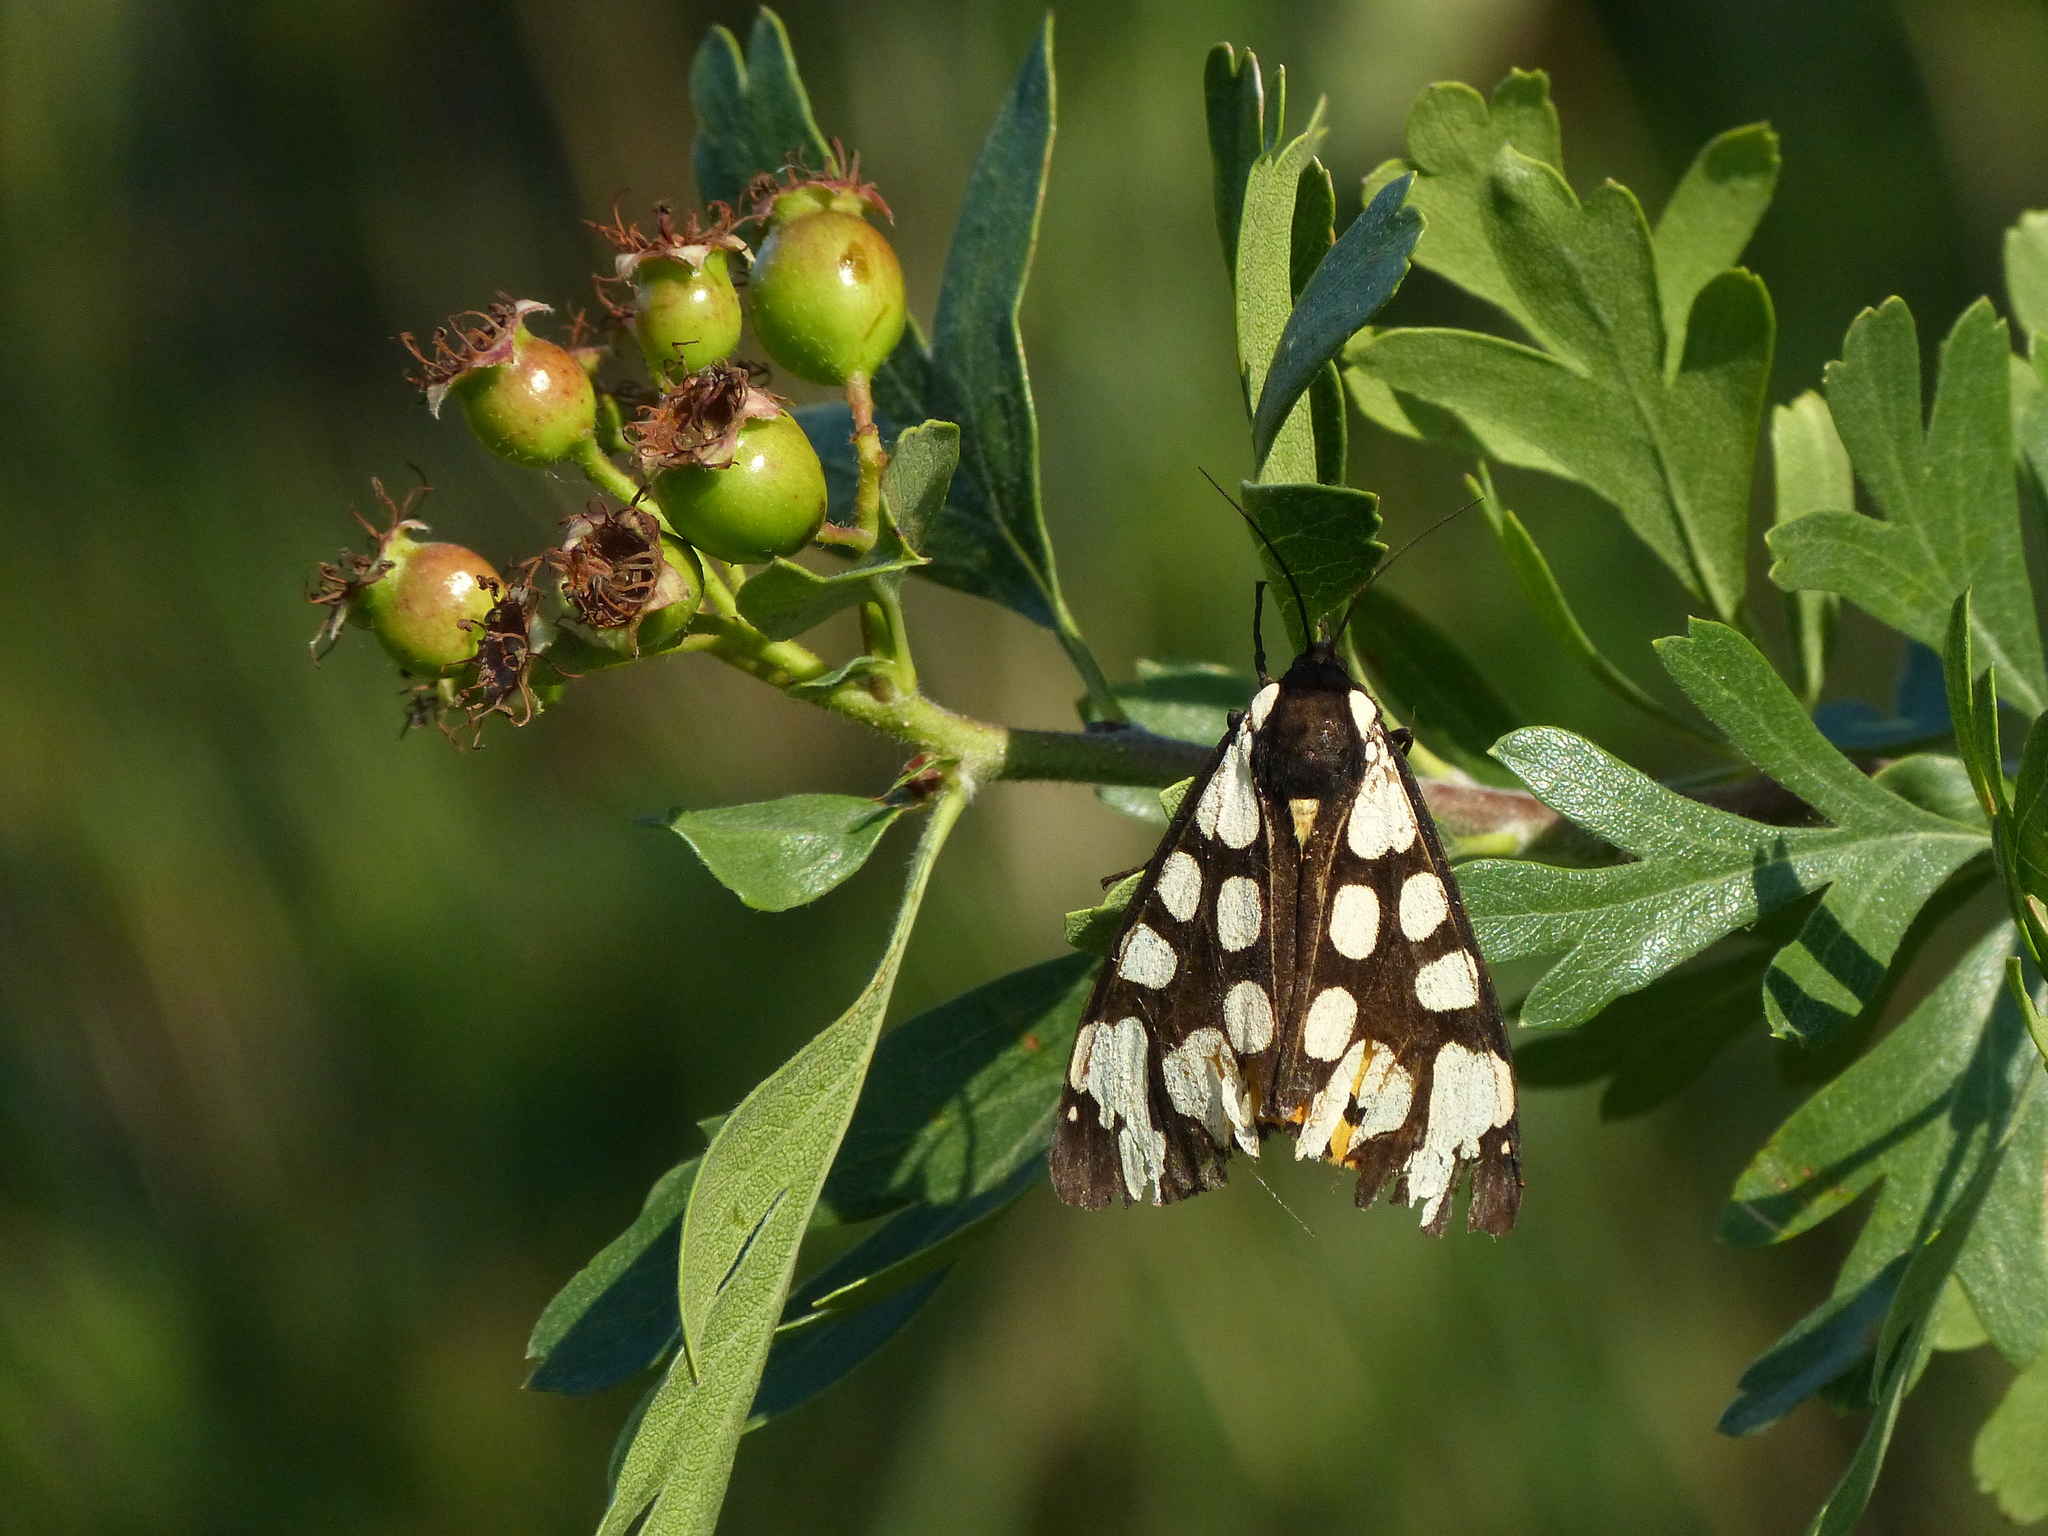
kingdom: Animalia
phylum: Arthropoda
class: Insecta
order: Lepidoptera
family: Erebidae
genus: Epicallia
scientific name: Epicallia villica
